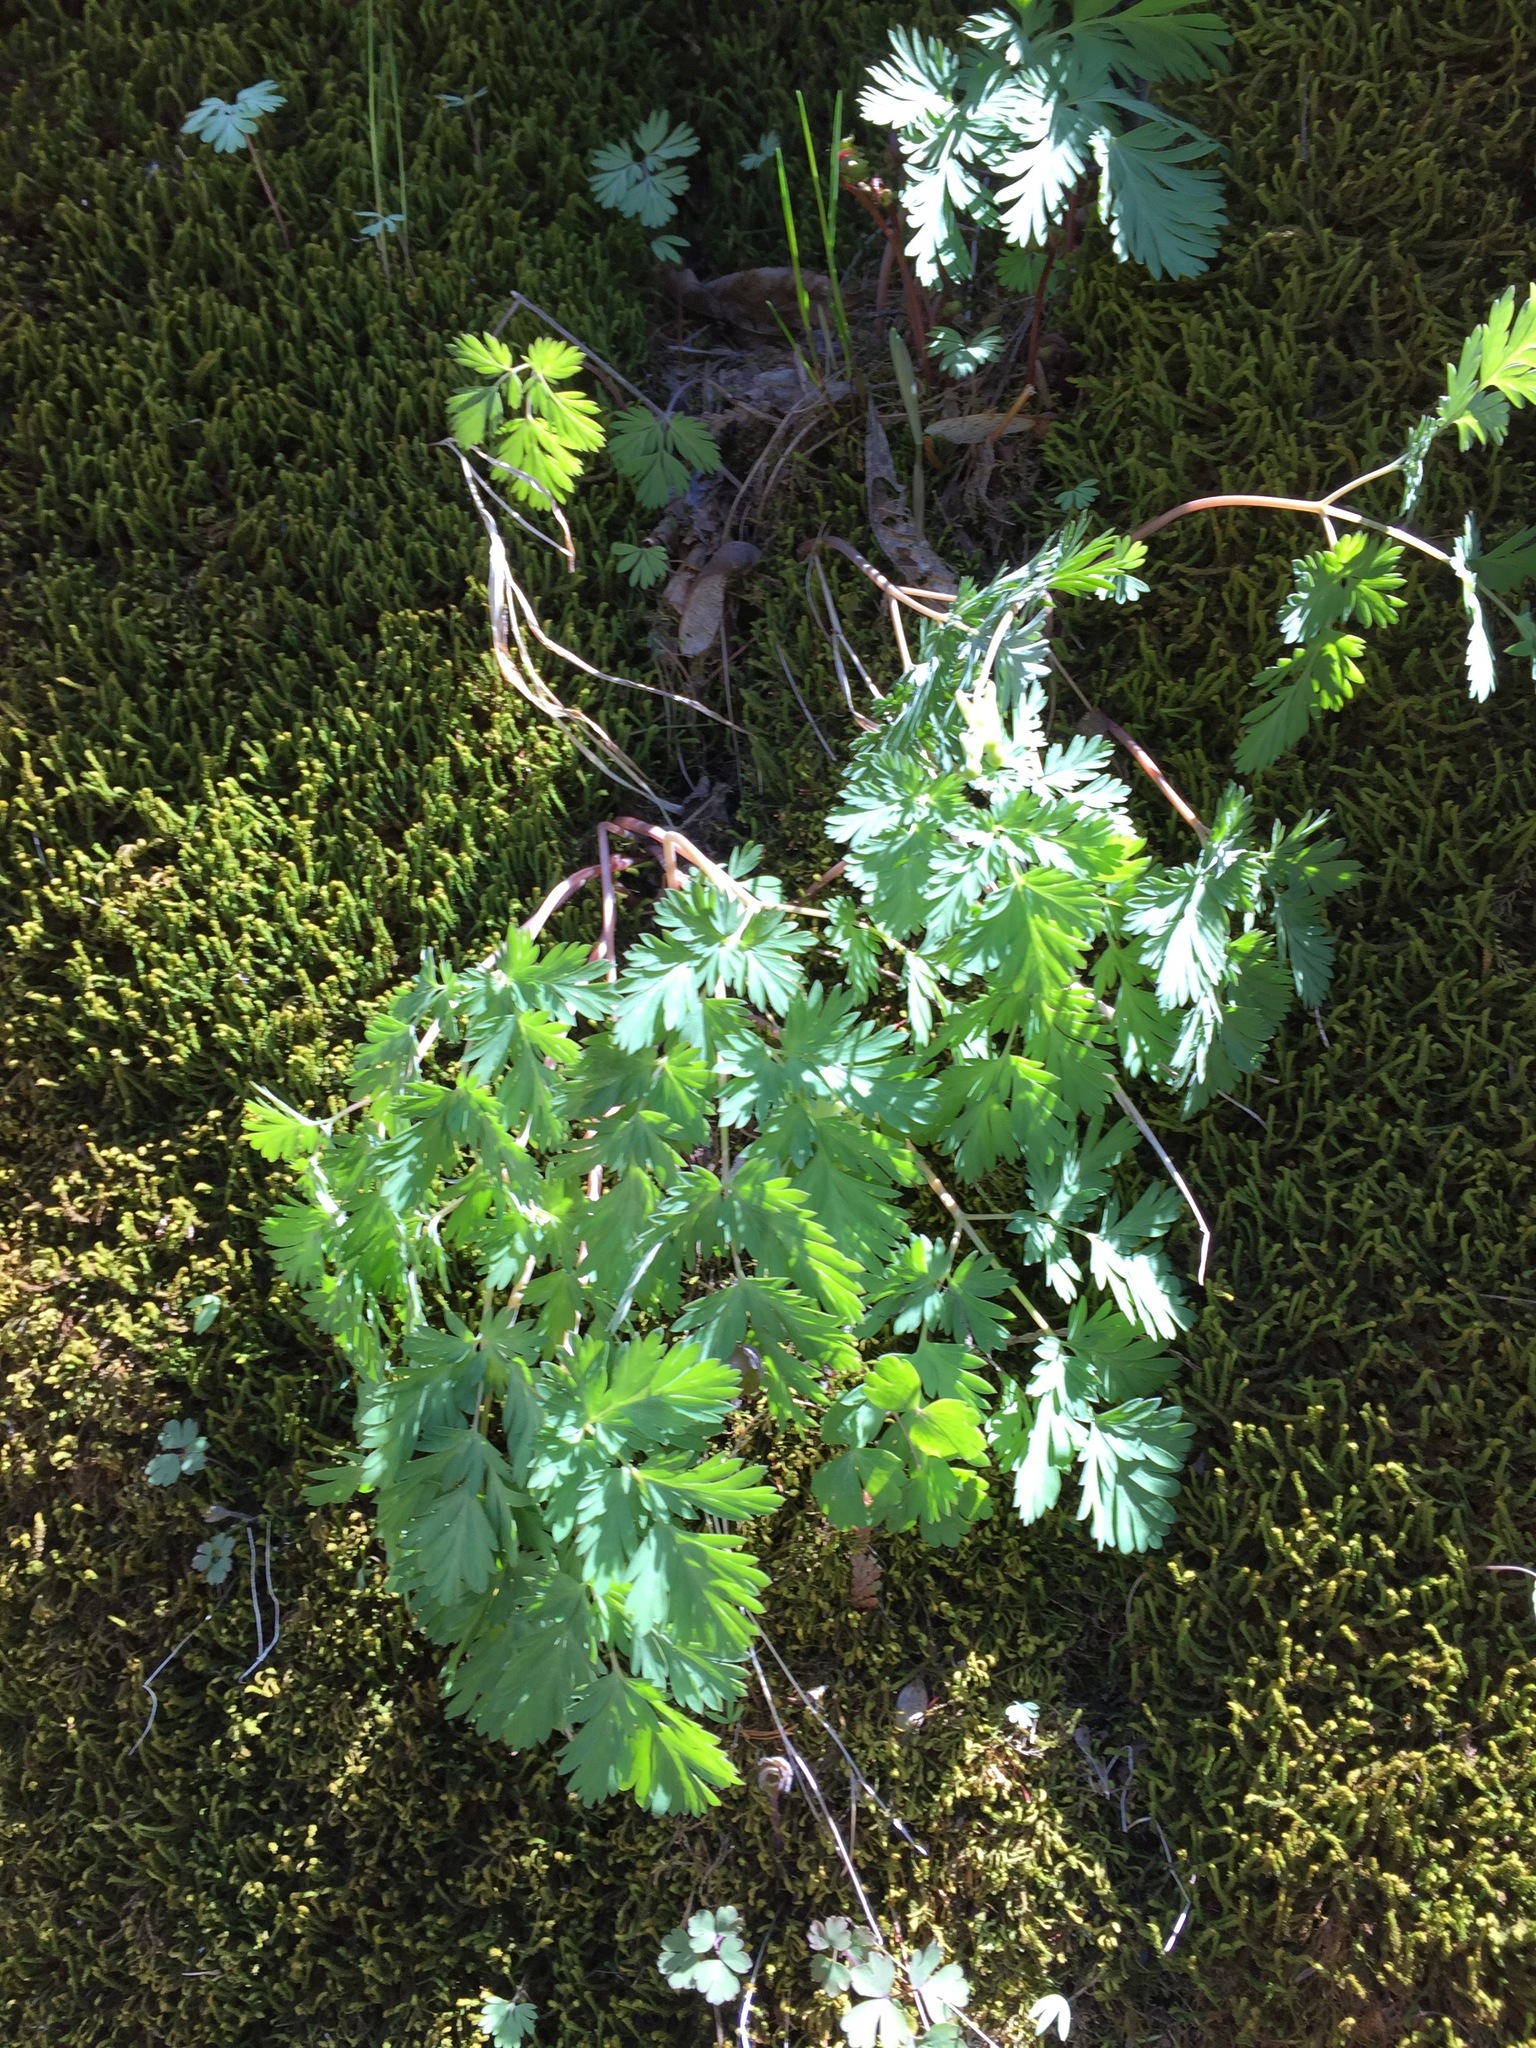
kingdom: Plantae
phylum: Tracheophyta
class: Magnoliopsida
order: Ranunculales
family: Papaveraceae
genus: Dicentra
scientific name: Dicentra cucullaria
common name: Dutchman's breeches
